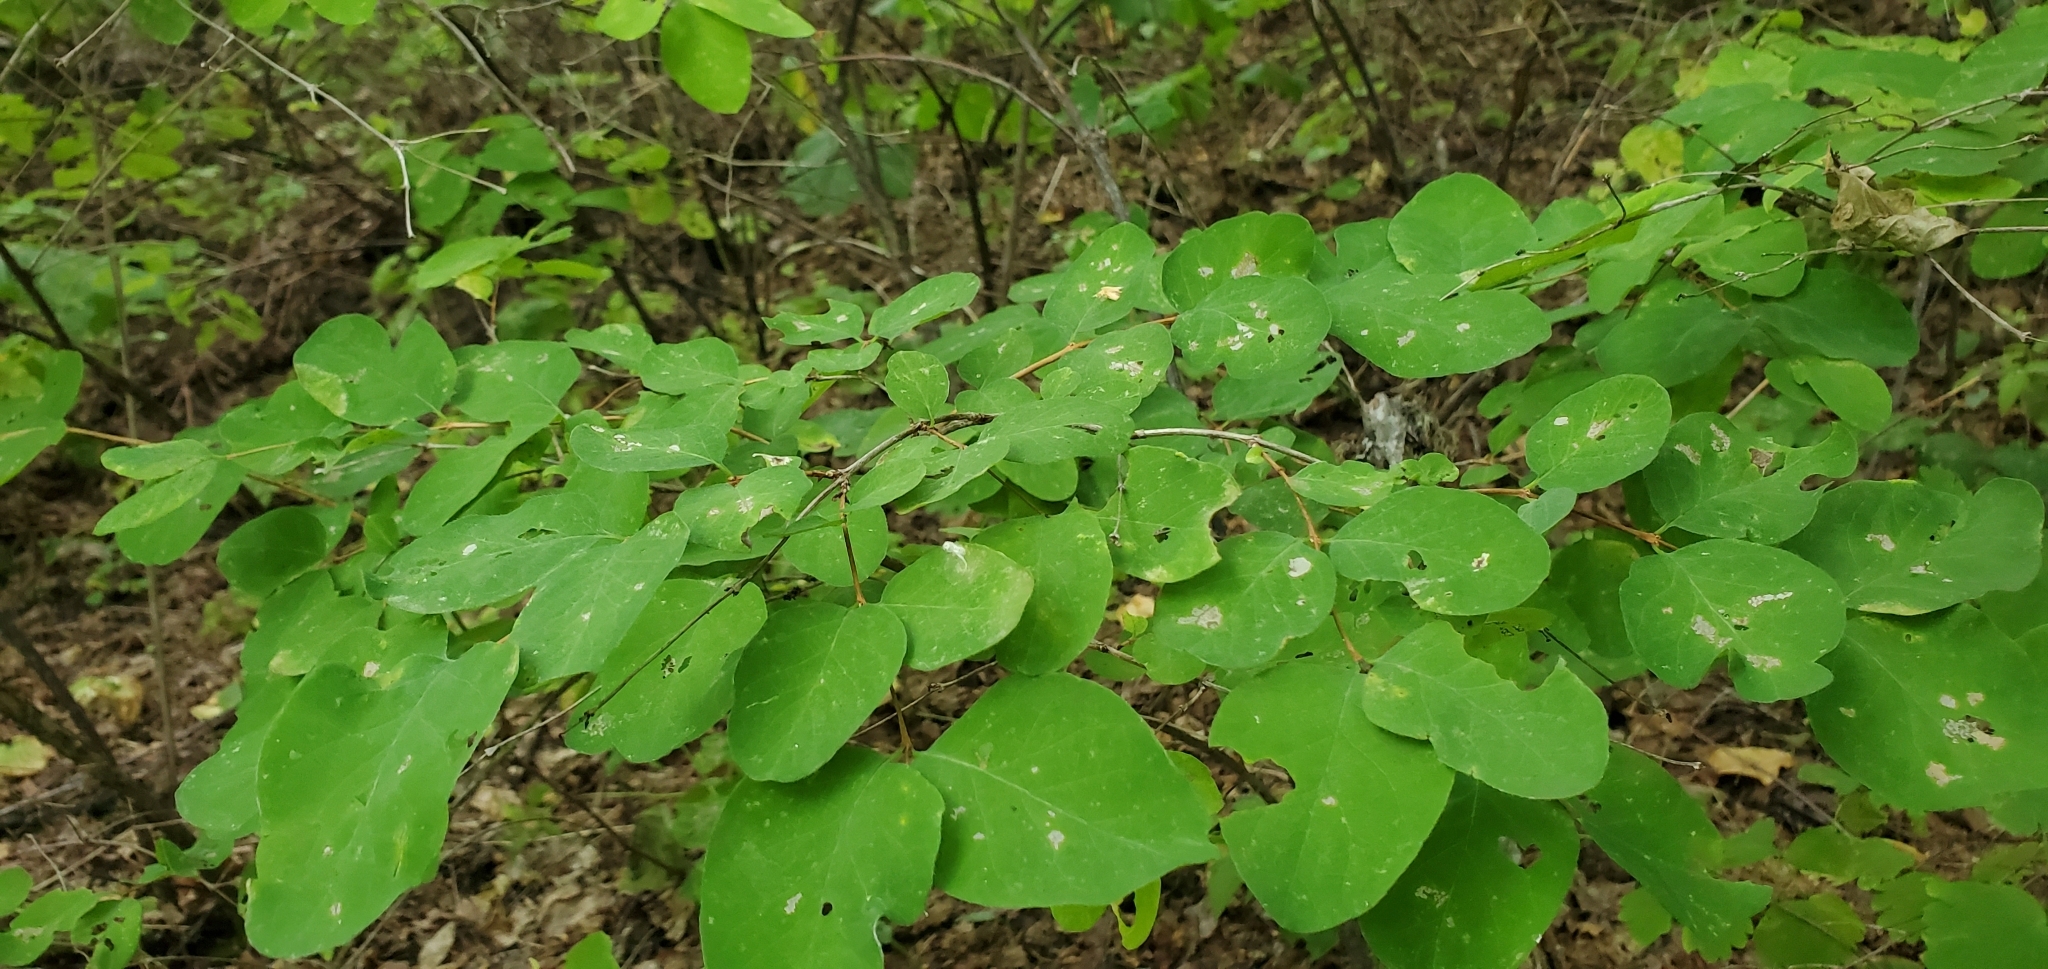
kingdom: Plantae
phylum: Tracheophyta
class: Magnoliopsida
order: Dipsacales
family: Caprifoliaceae
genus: Symphoricarpos
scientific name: Symphoricarpos albus
